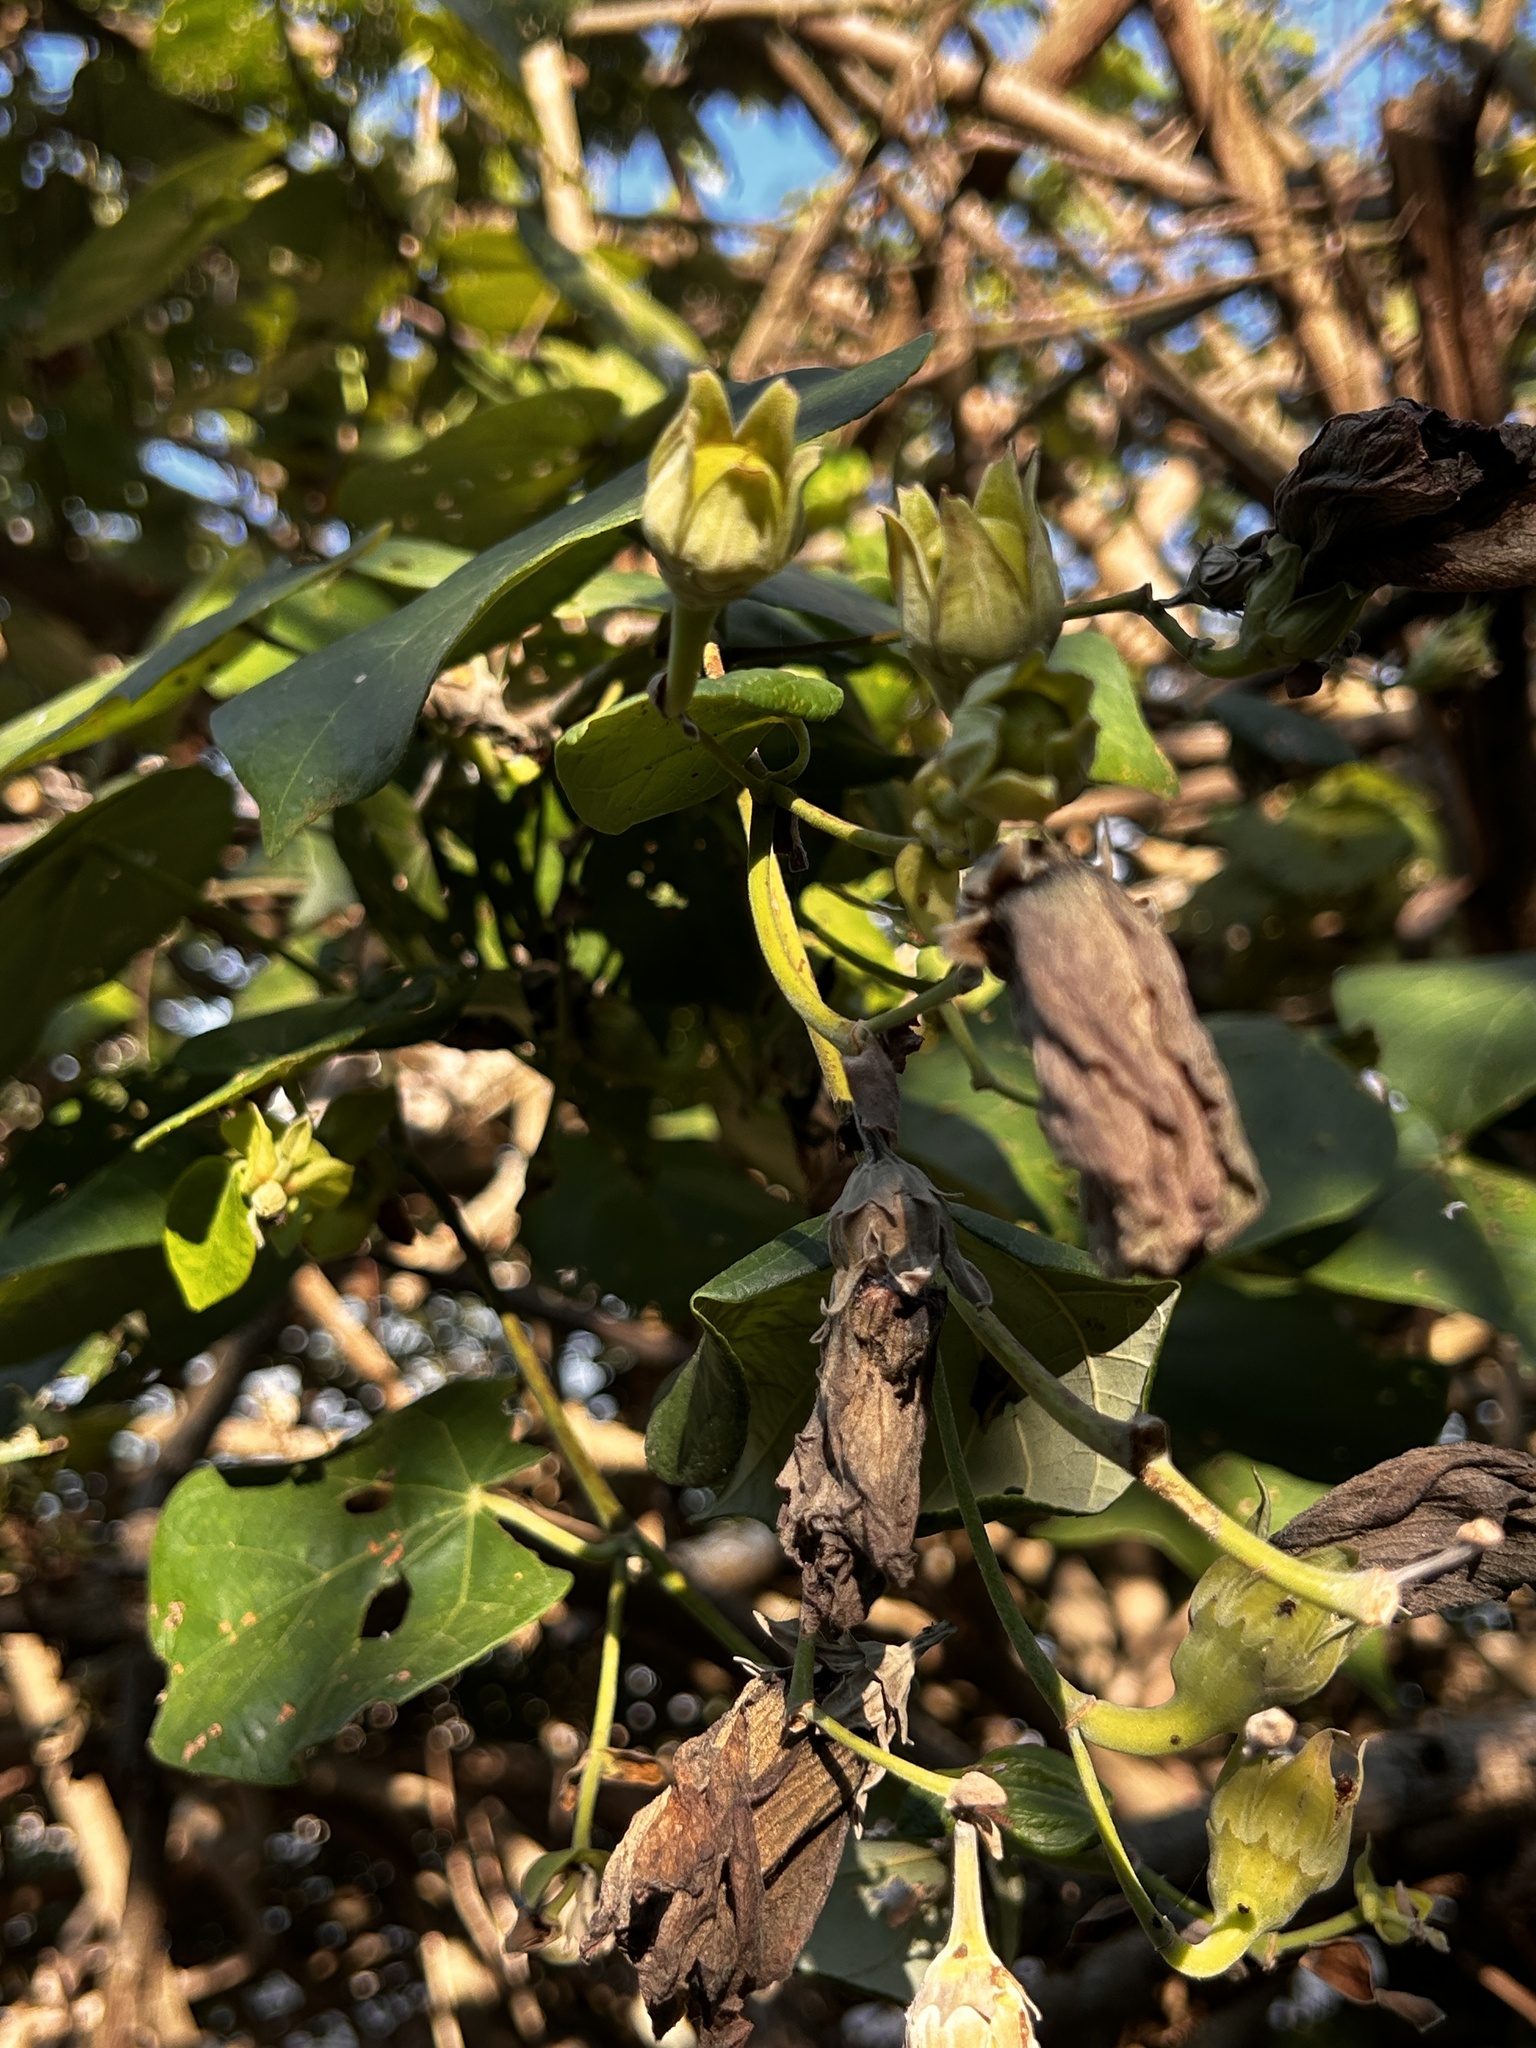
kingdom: Plantae
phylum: Tracheophyta
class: Magnoliopsida
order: Malvales
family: Malvaceae
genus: Talipariti
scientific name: Talipariti tiliaceum
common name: Sea hibiscus
